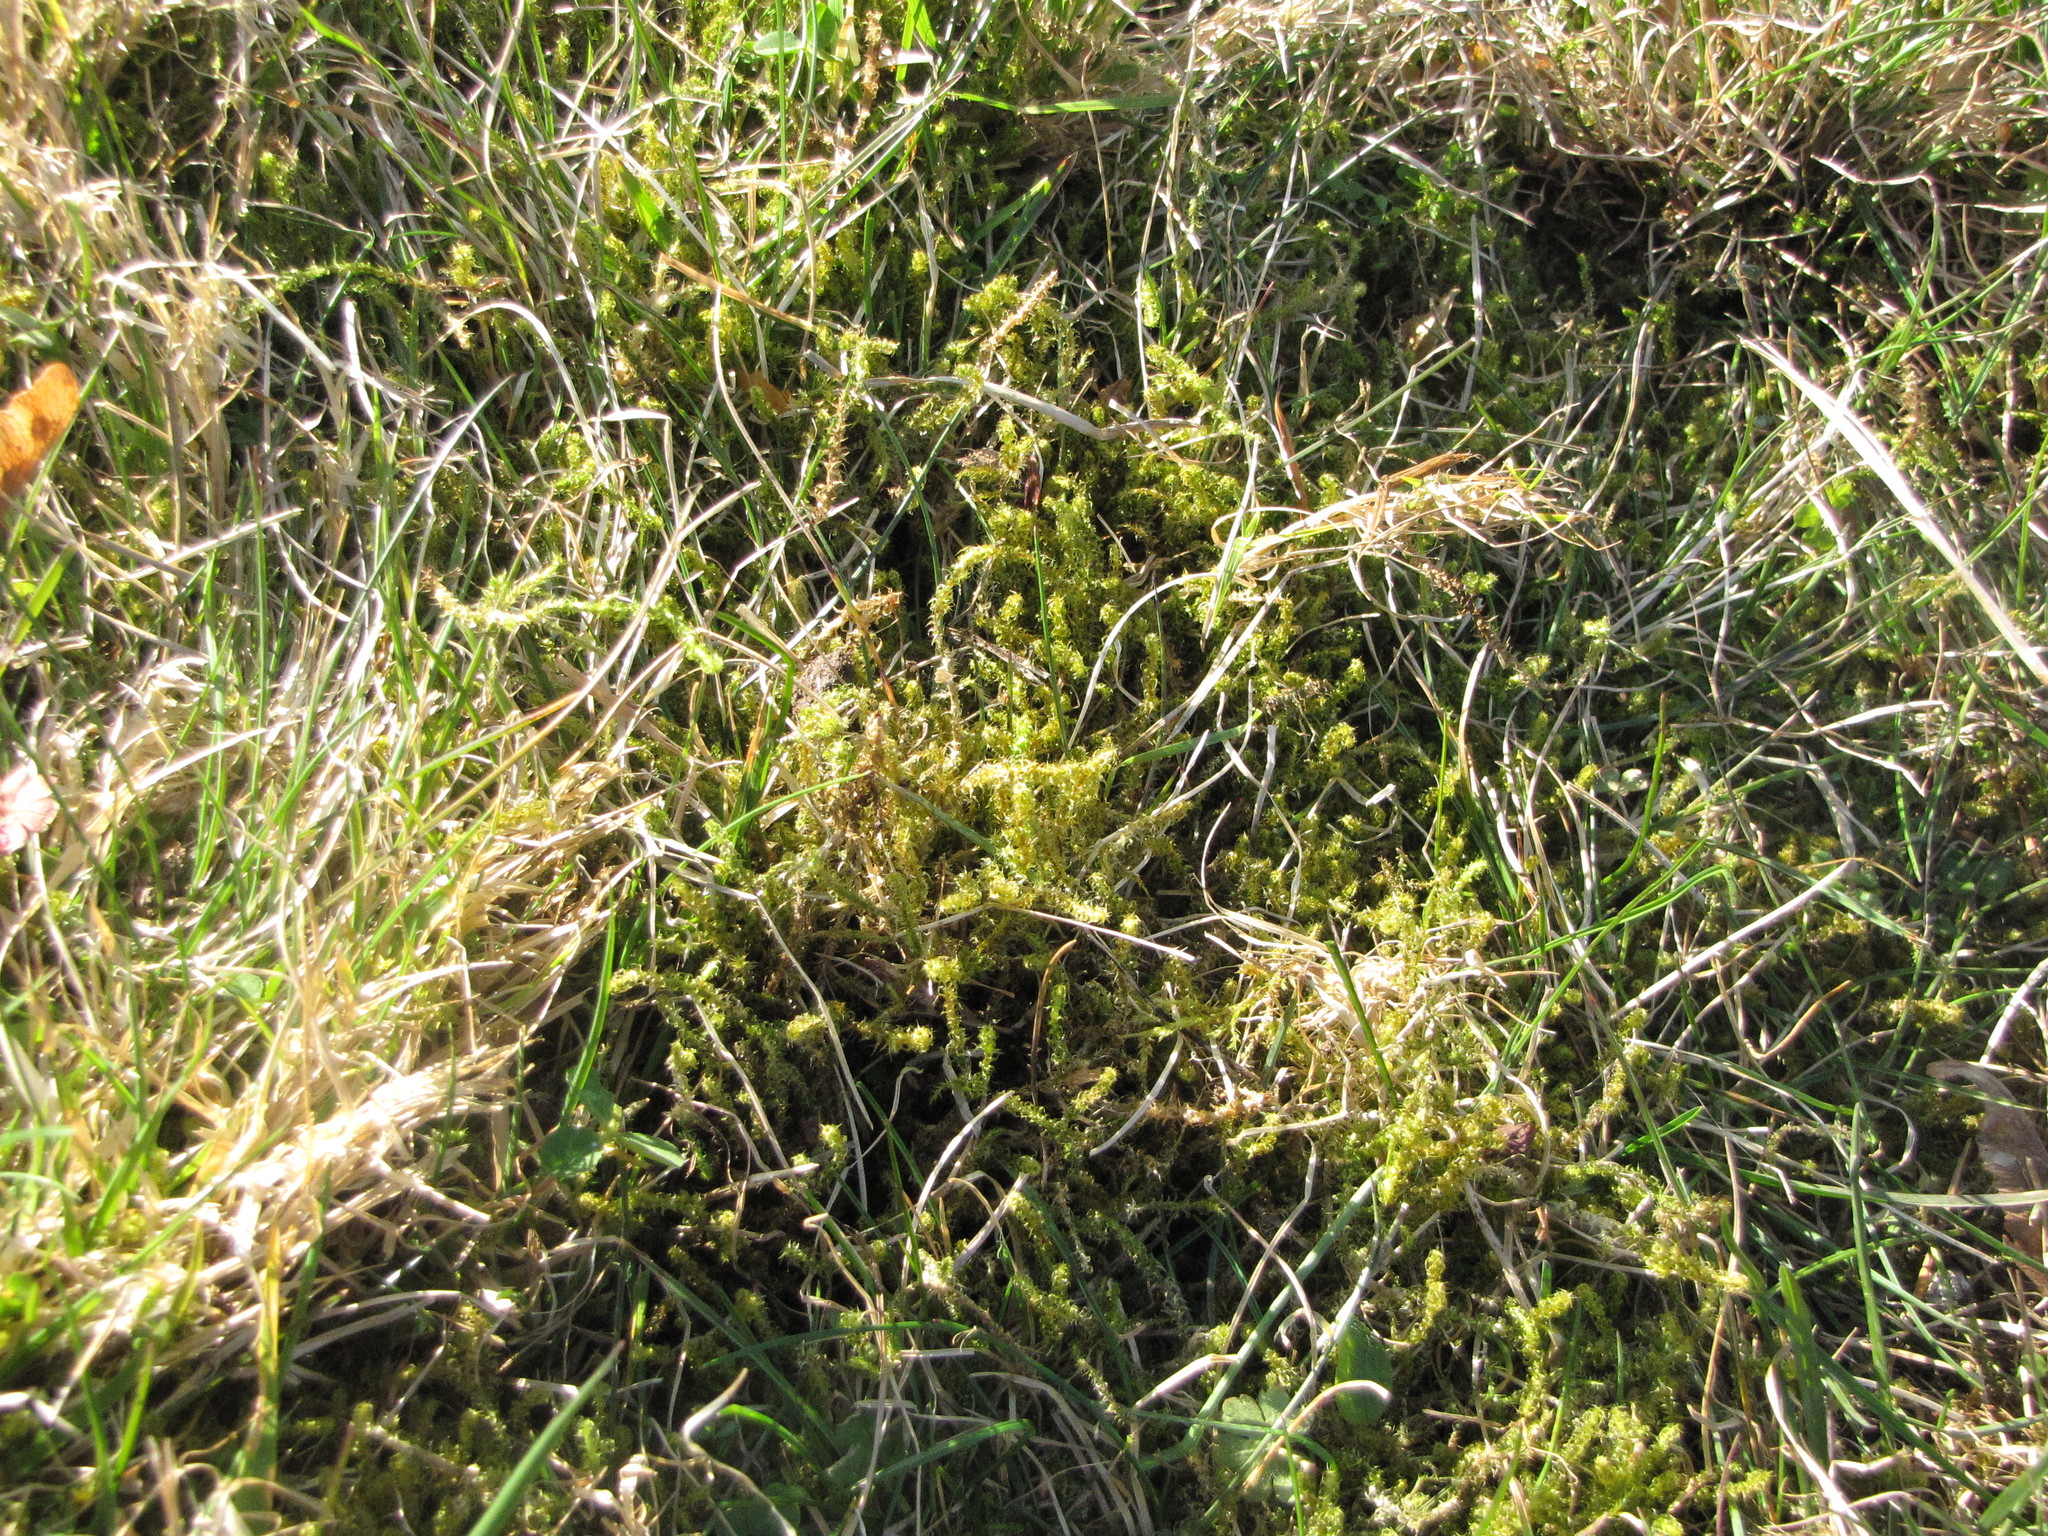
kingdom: Plantae
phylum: Bryophyta
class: Bryopsida
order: Hypnales
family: Hylocomiaceae
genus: Rhytidiadelphus
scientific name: Rhytidiadelphus squarrosus
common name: Springy turf-moss
